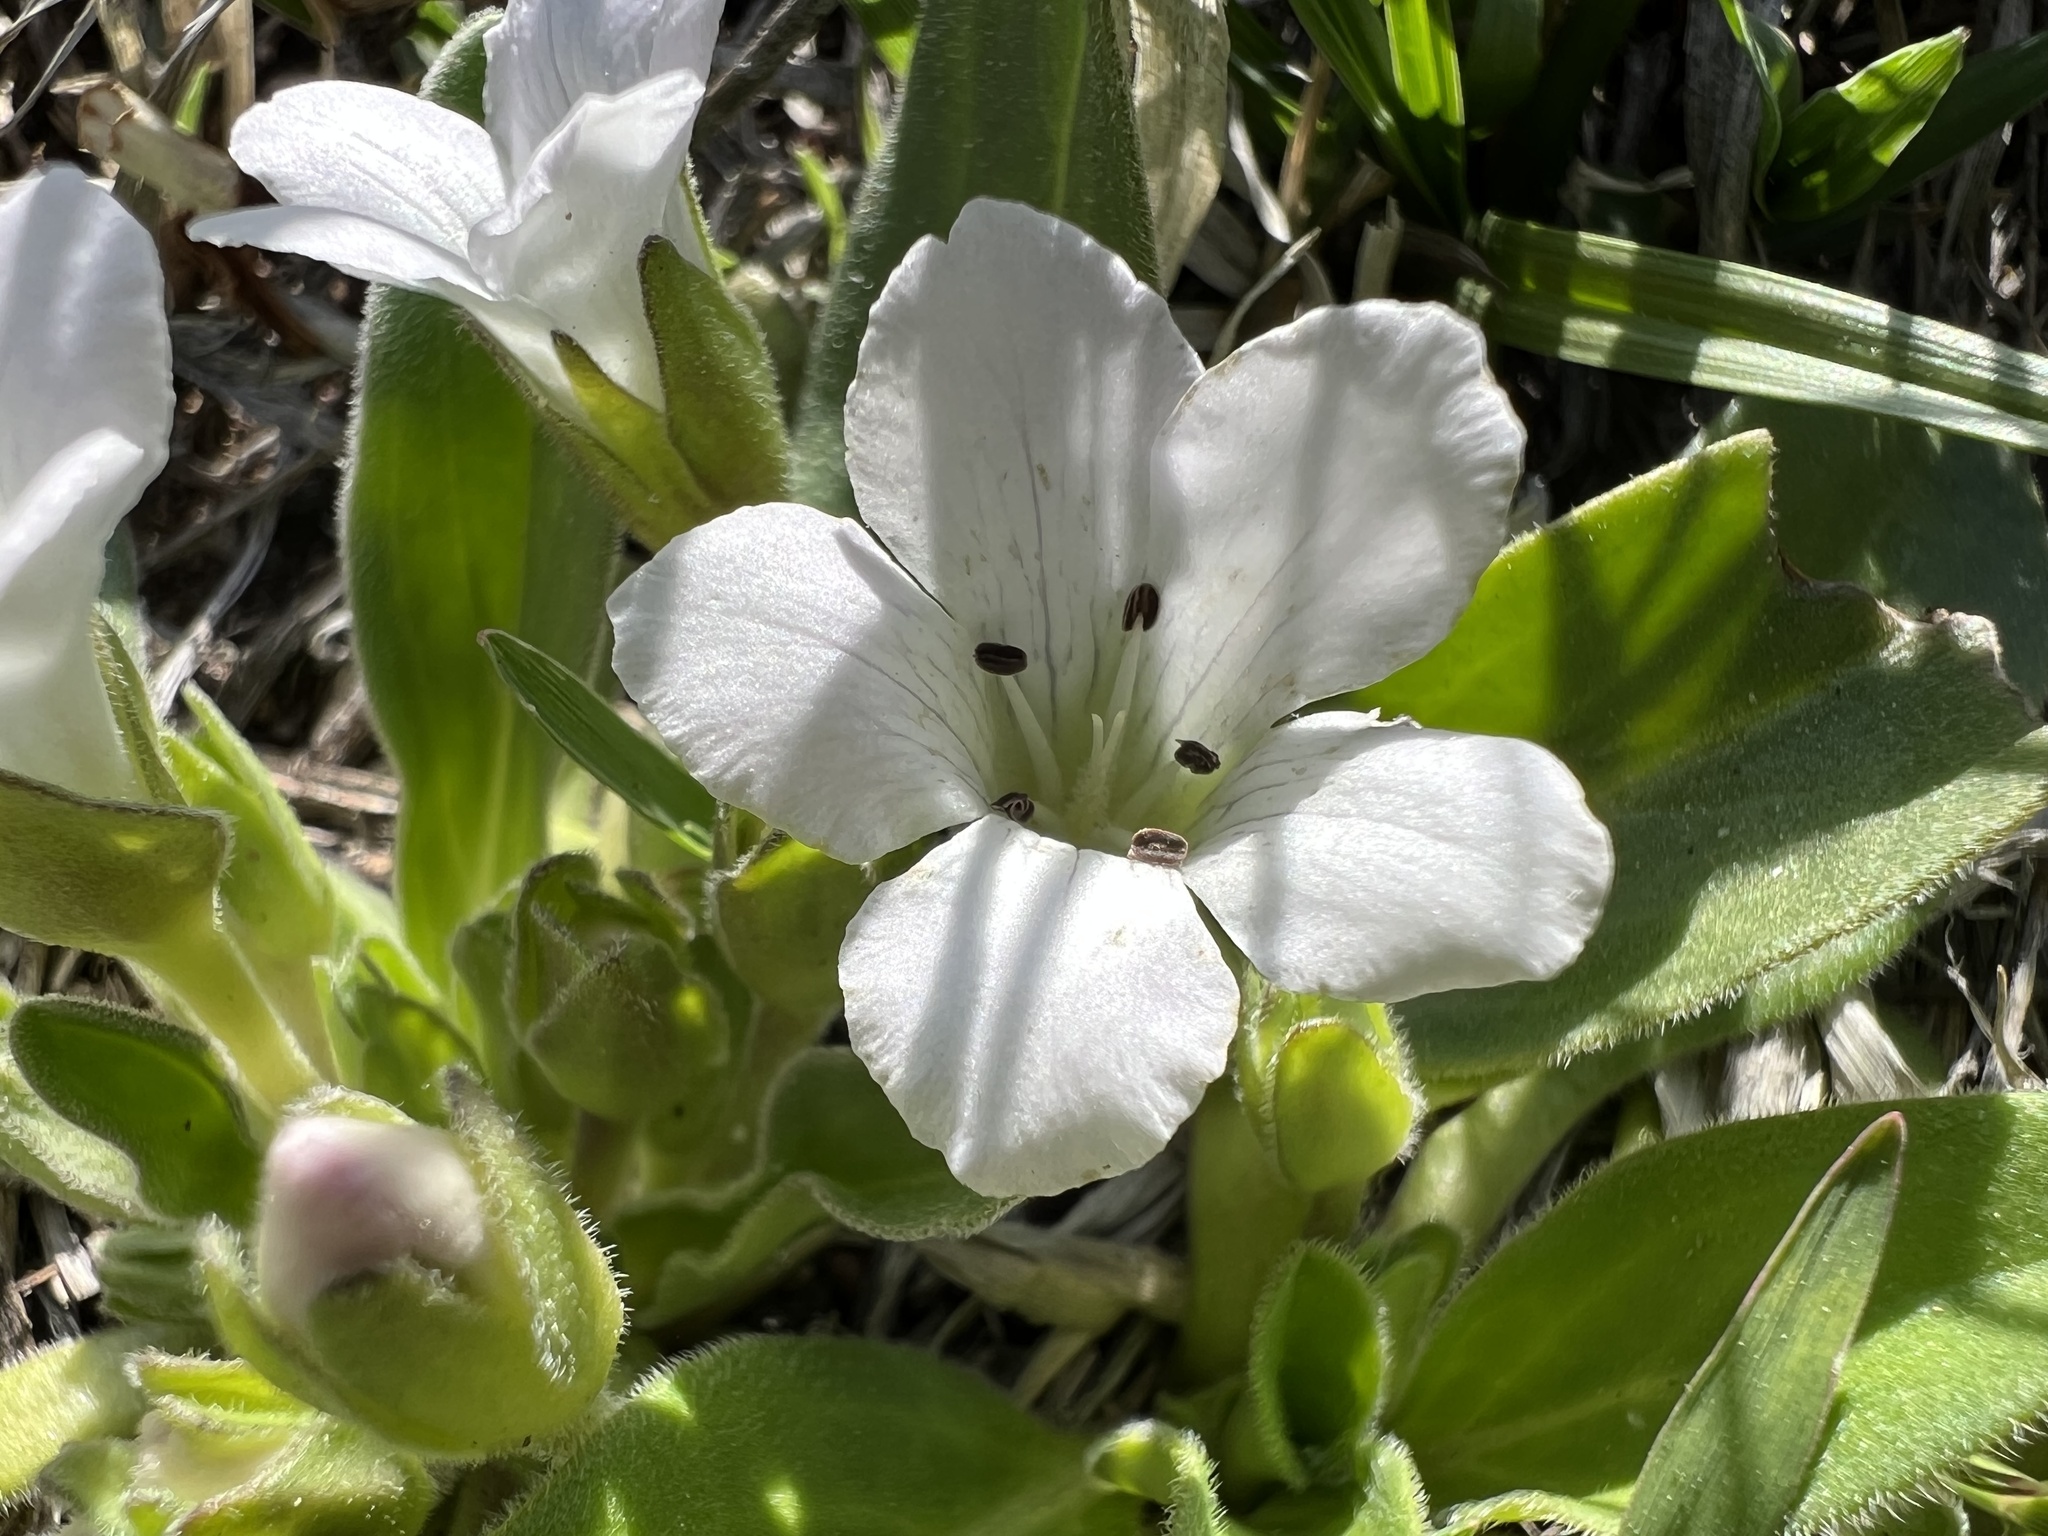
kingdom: Plantae
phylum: Tracheophyta
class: Magnoliopsida
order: Boraginales
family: Hydrophyllaceae
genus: Hesperochiron
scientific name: Hesperochiron californicus
